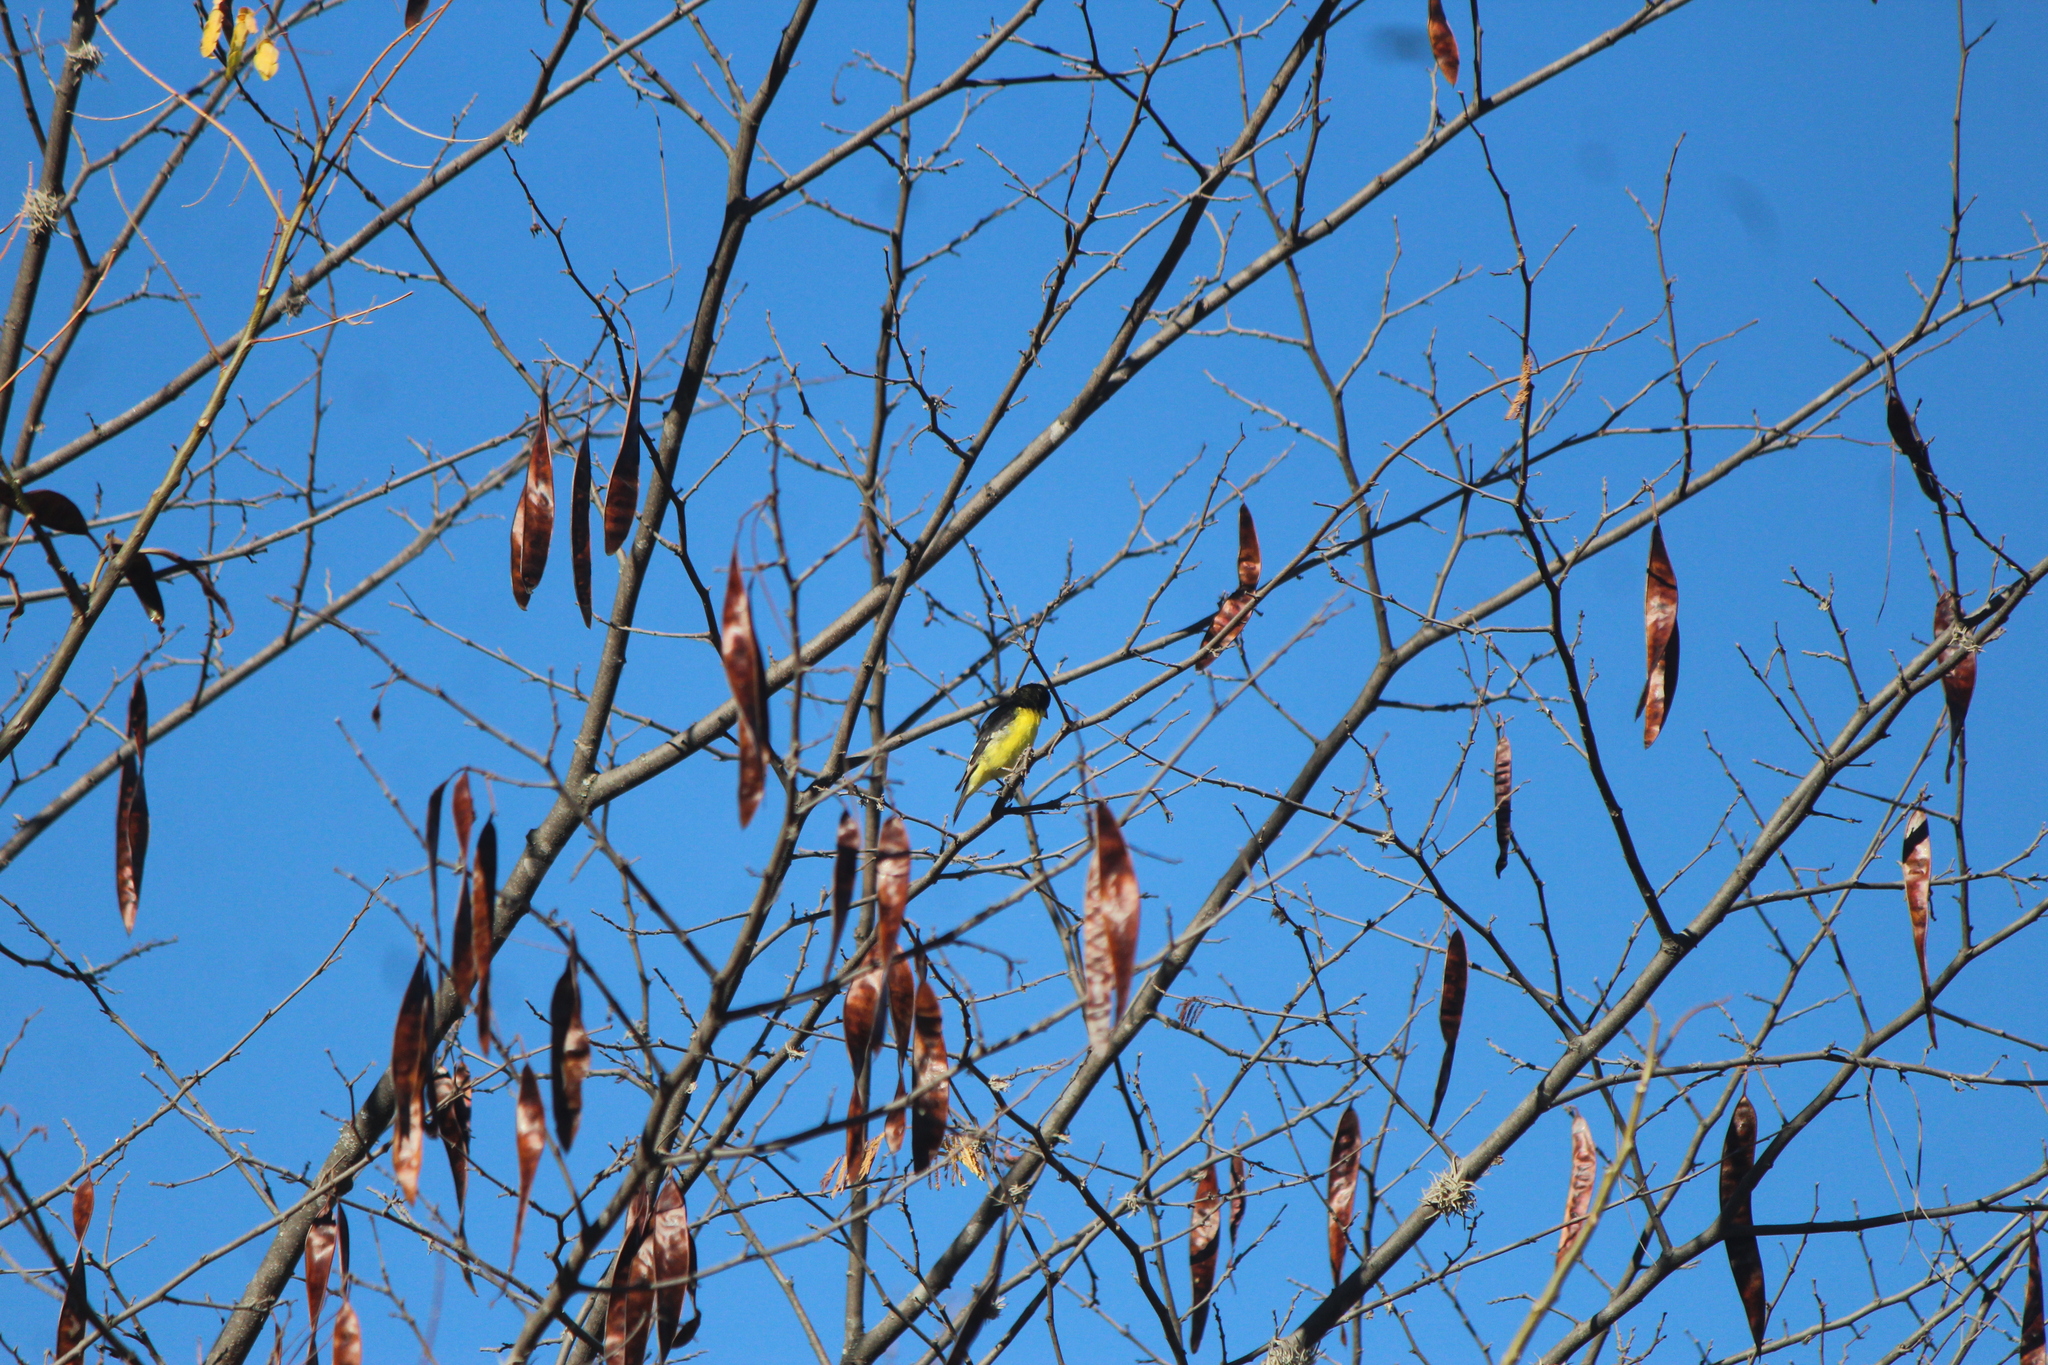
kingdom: Animalia
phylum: Chordata
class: Aves
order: Passeriformes
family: Fringillidae
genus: Spinus
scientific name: Spinus psaltria
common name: Lesser goldfinch
